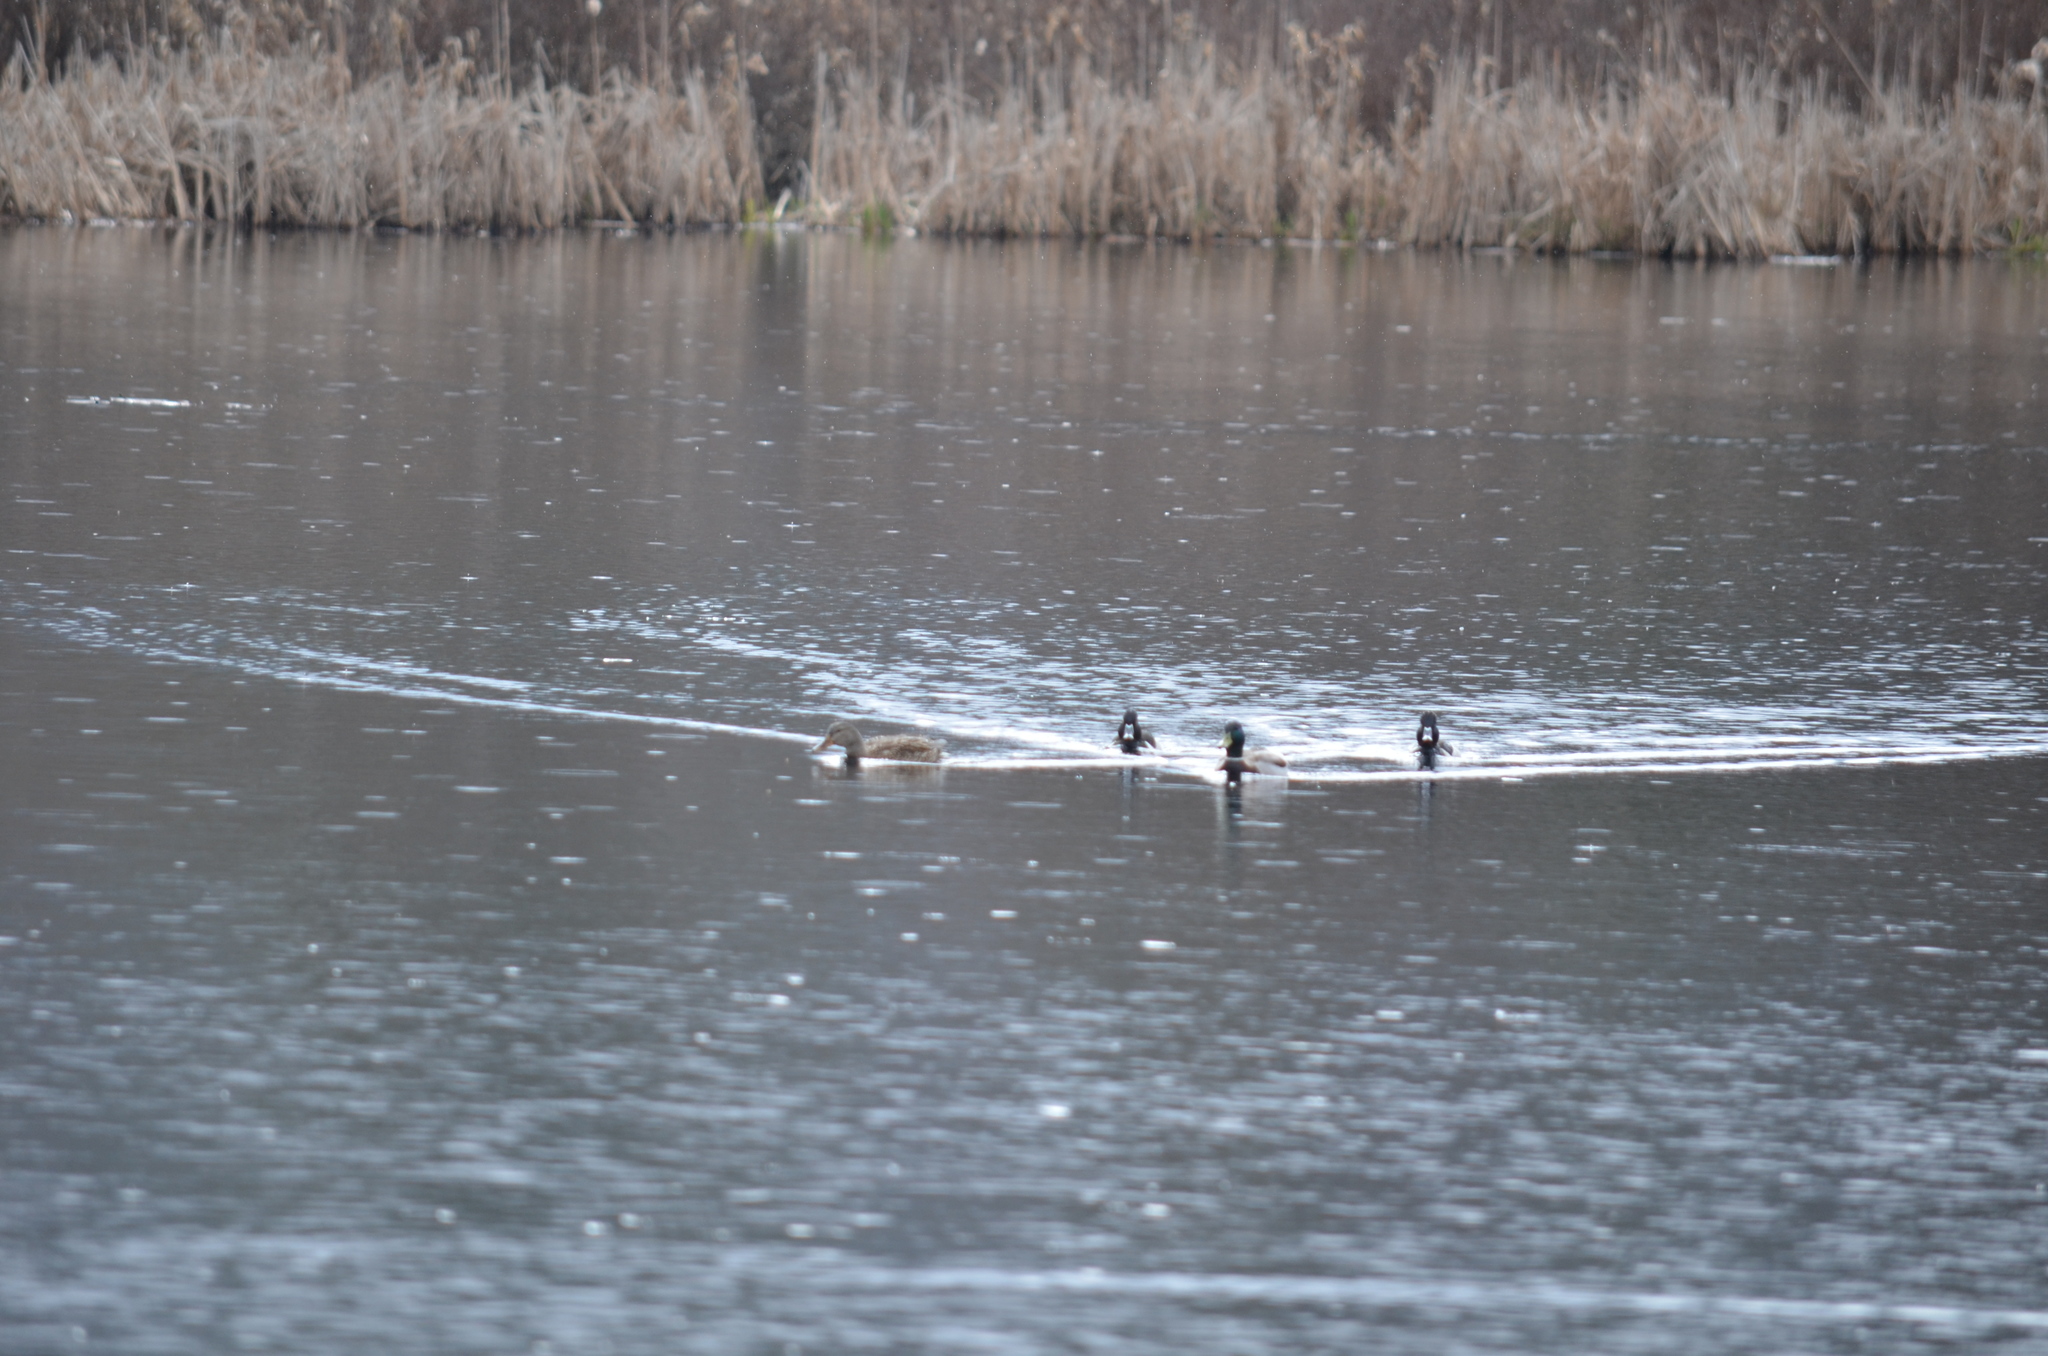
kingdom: Animalia
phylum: Chordata
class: Aves
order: Anseriformes
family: Anatidae
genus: Anas
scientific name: Anas platyrhynchos
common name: Mallard
